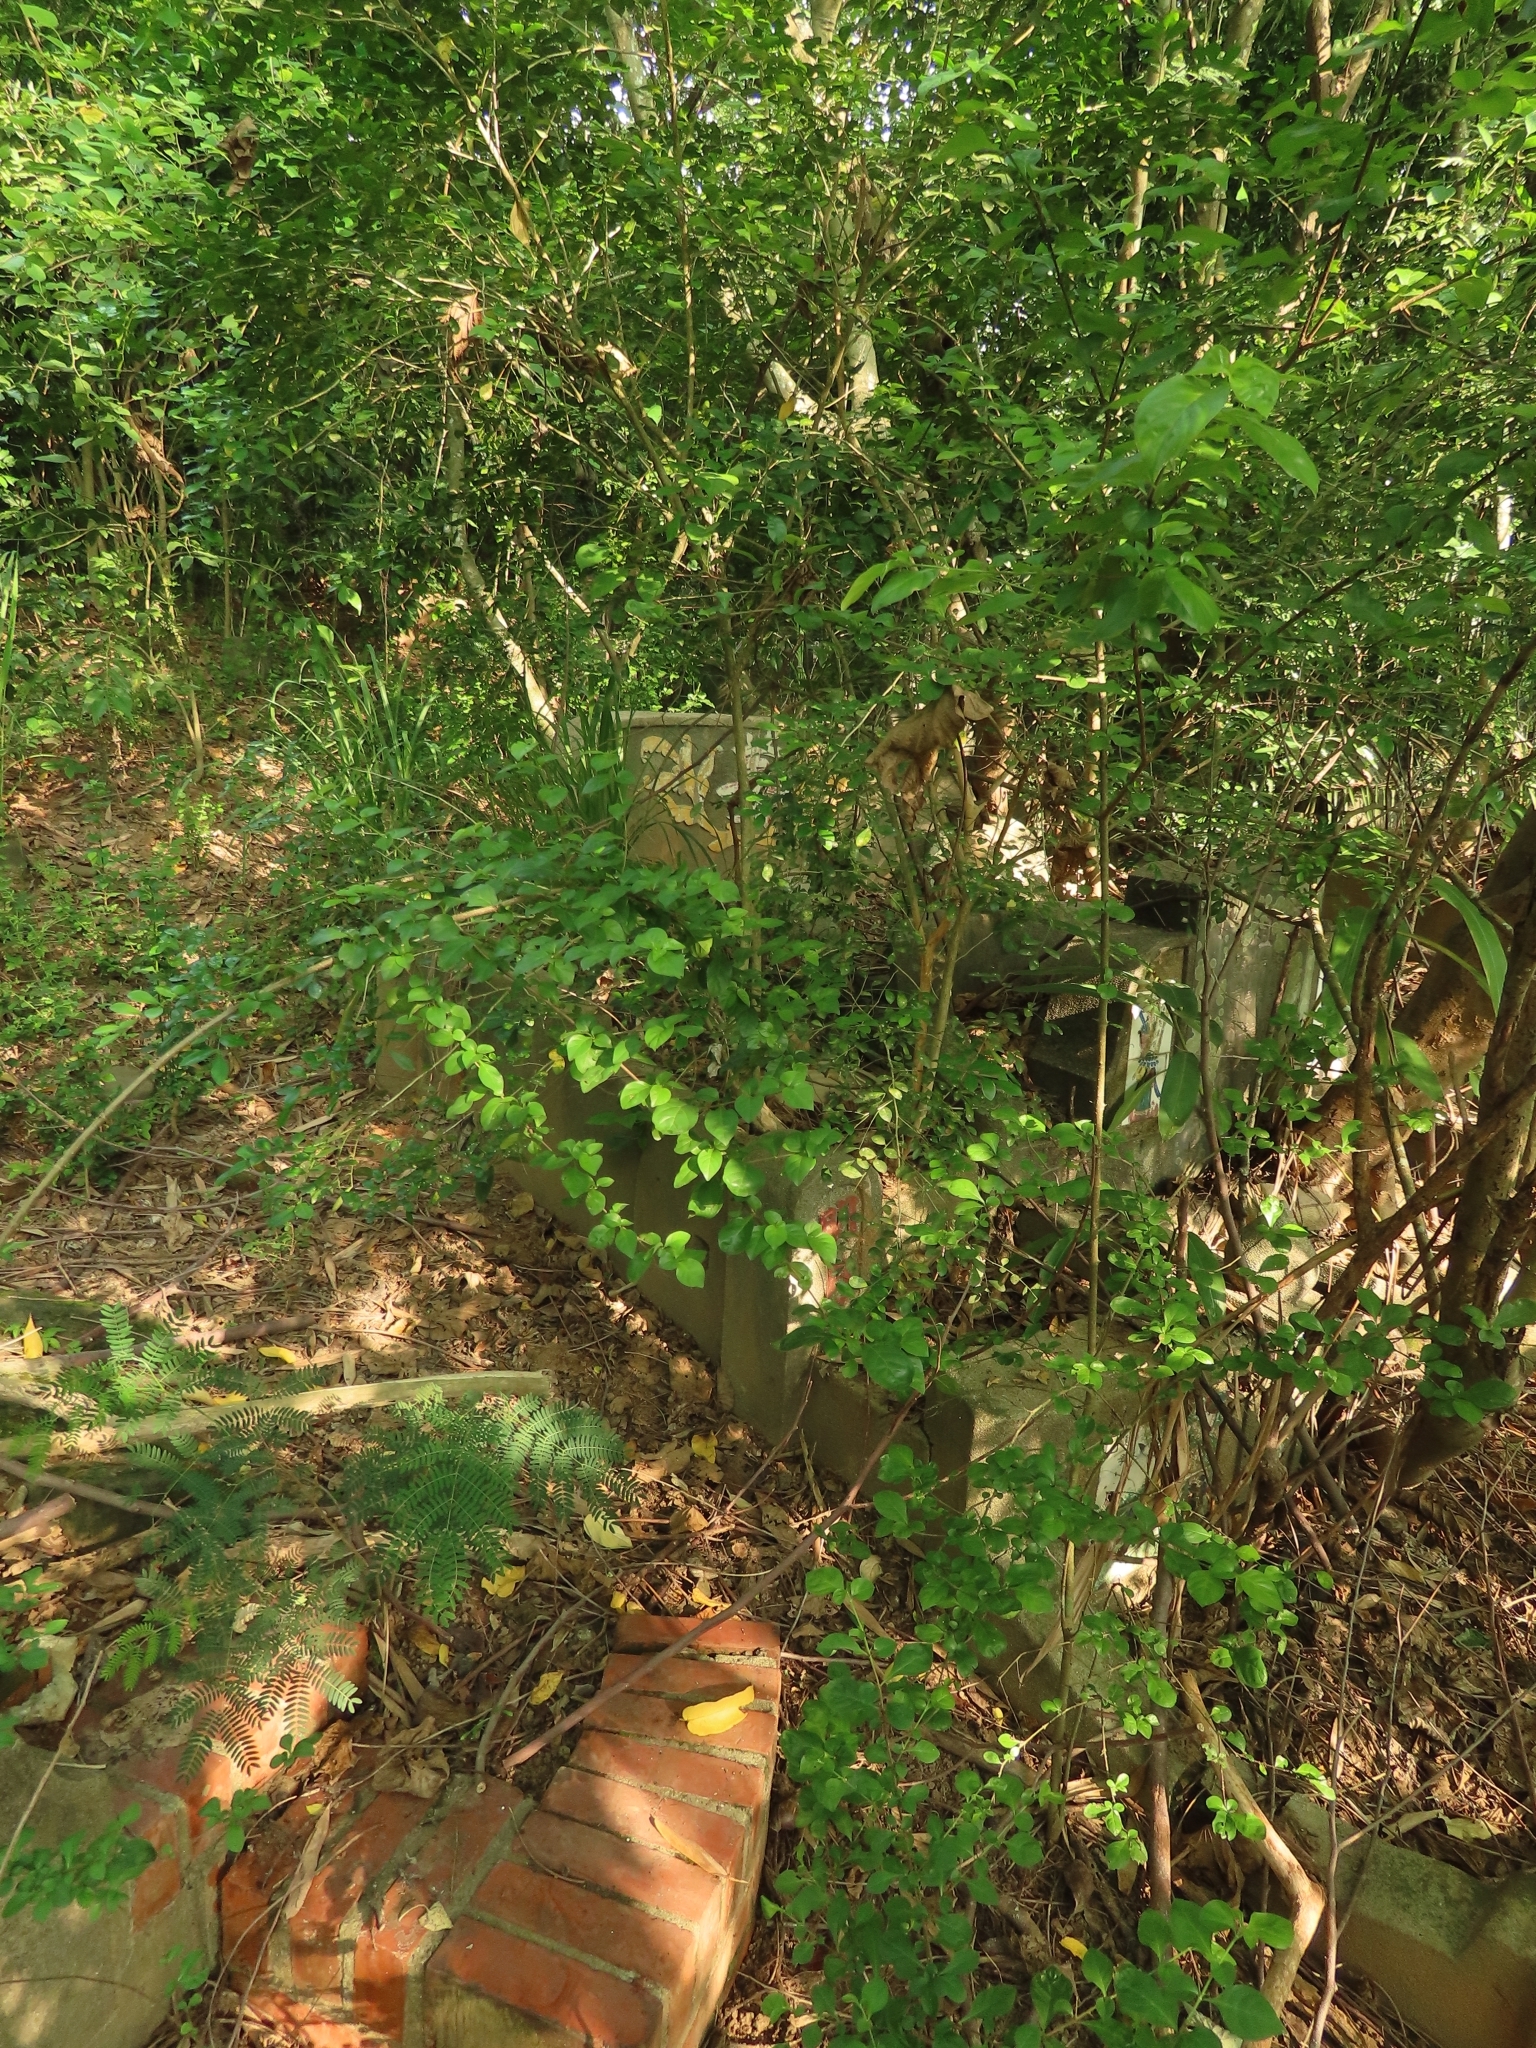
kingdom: Plantae
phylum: Tracheophyta
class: Magnoliopsida
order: Caryophyllales
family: Nyctaginaceae
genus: Pisonia
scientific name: Pisonia aculeata
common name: Cockspur vine
